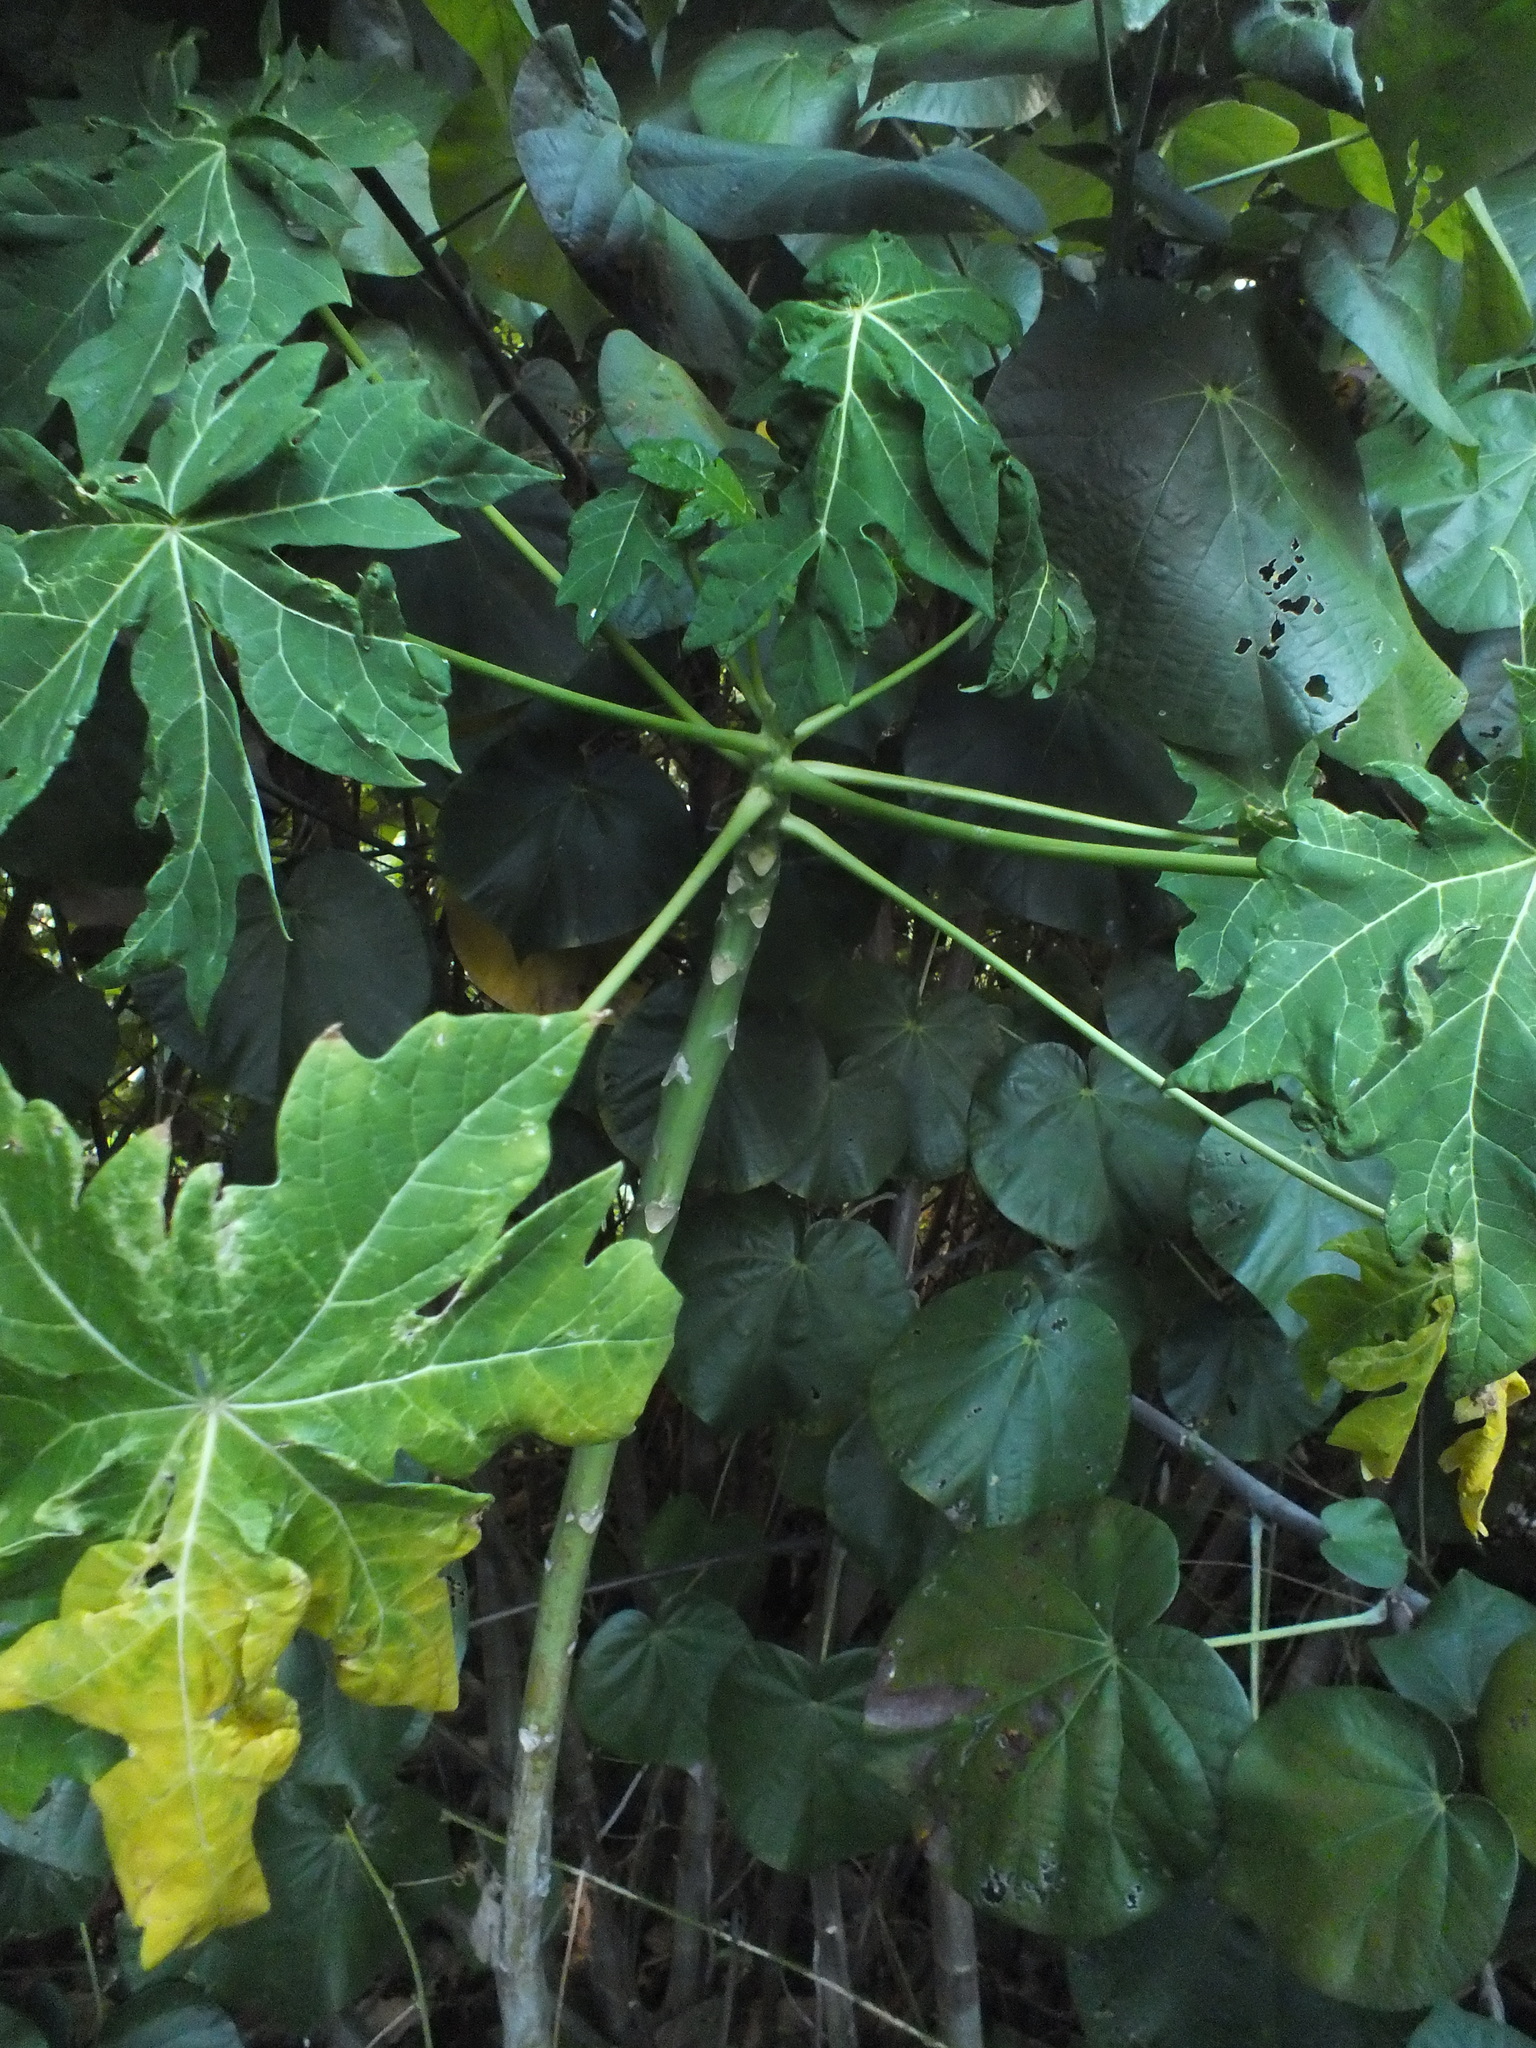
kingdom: Plantae
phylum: Tracheophyta
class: Magnoliopsida
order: Brassicales
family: Caricaceae
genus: Carica
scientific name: Carica papaya
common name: Papaya
